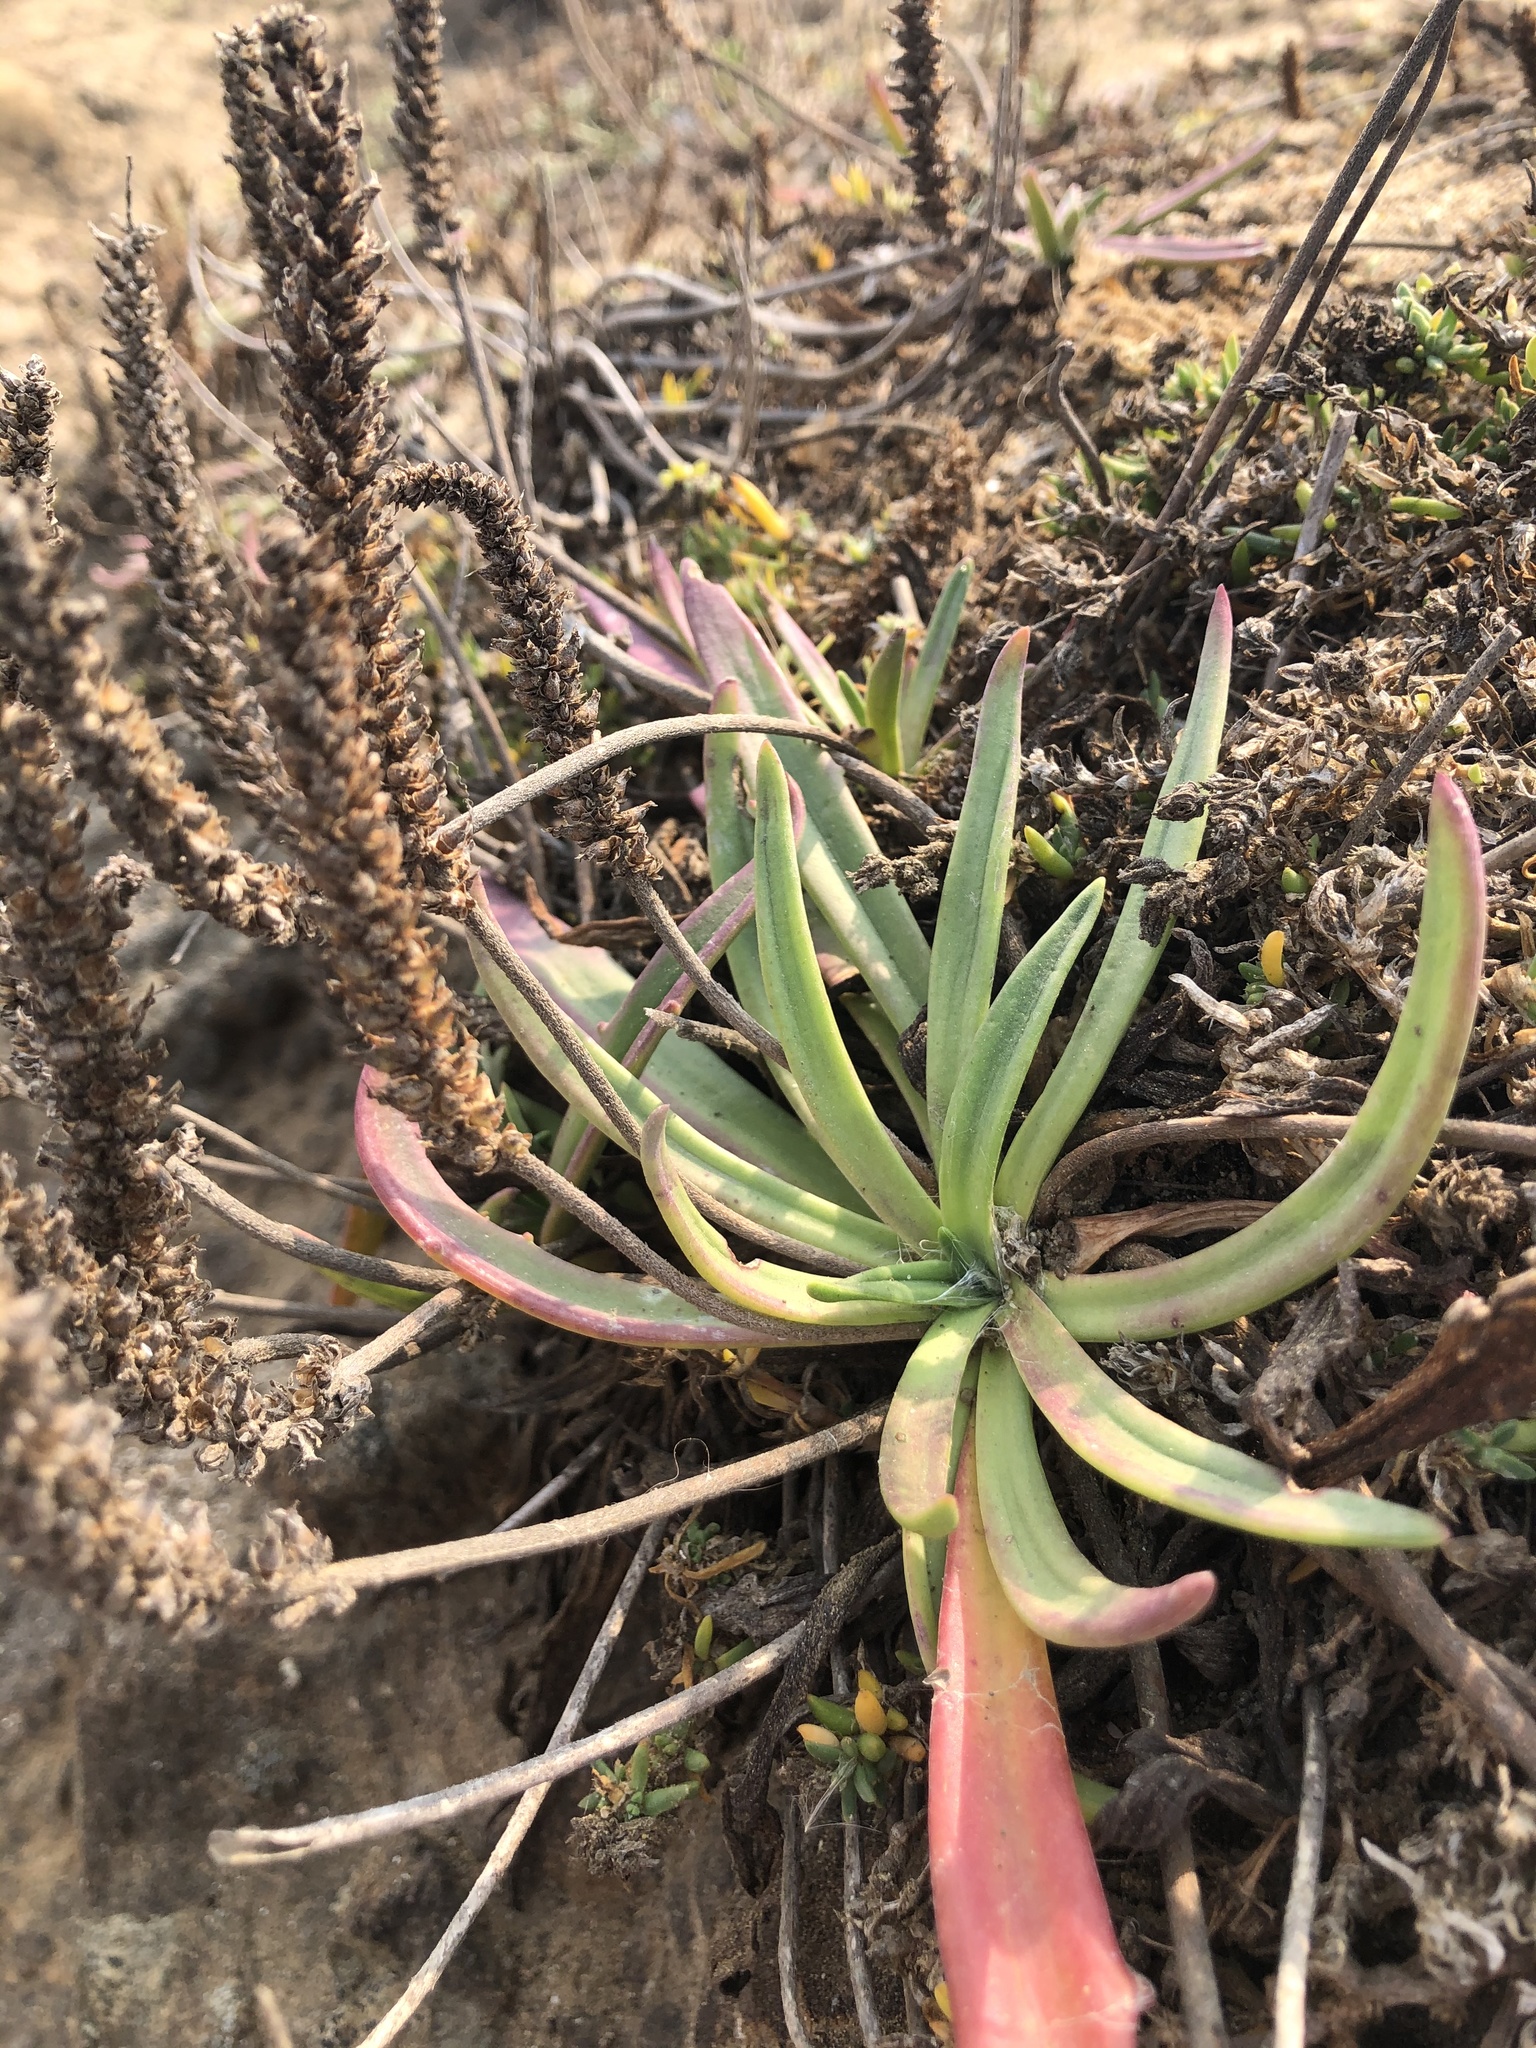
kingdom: Plantae
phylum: Tracheophyta
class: Magnoliopsida
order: Lamiales
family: Plantaginaceae
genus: Plantago
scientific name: Plantago maritima
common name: Sea plantain
